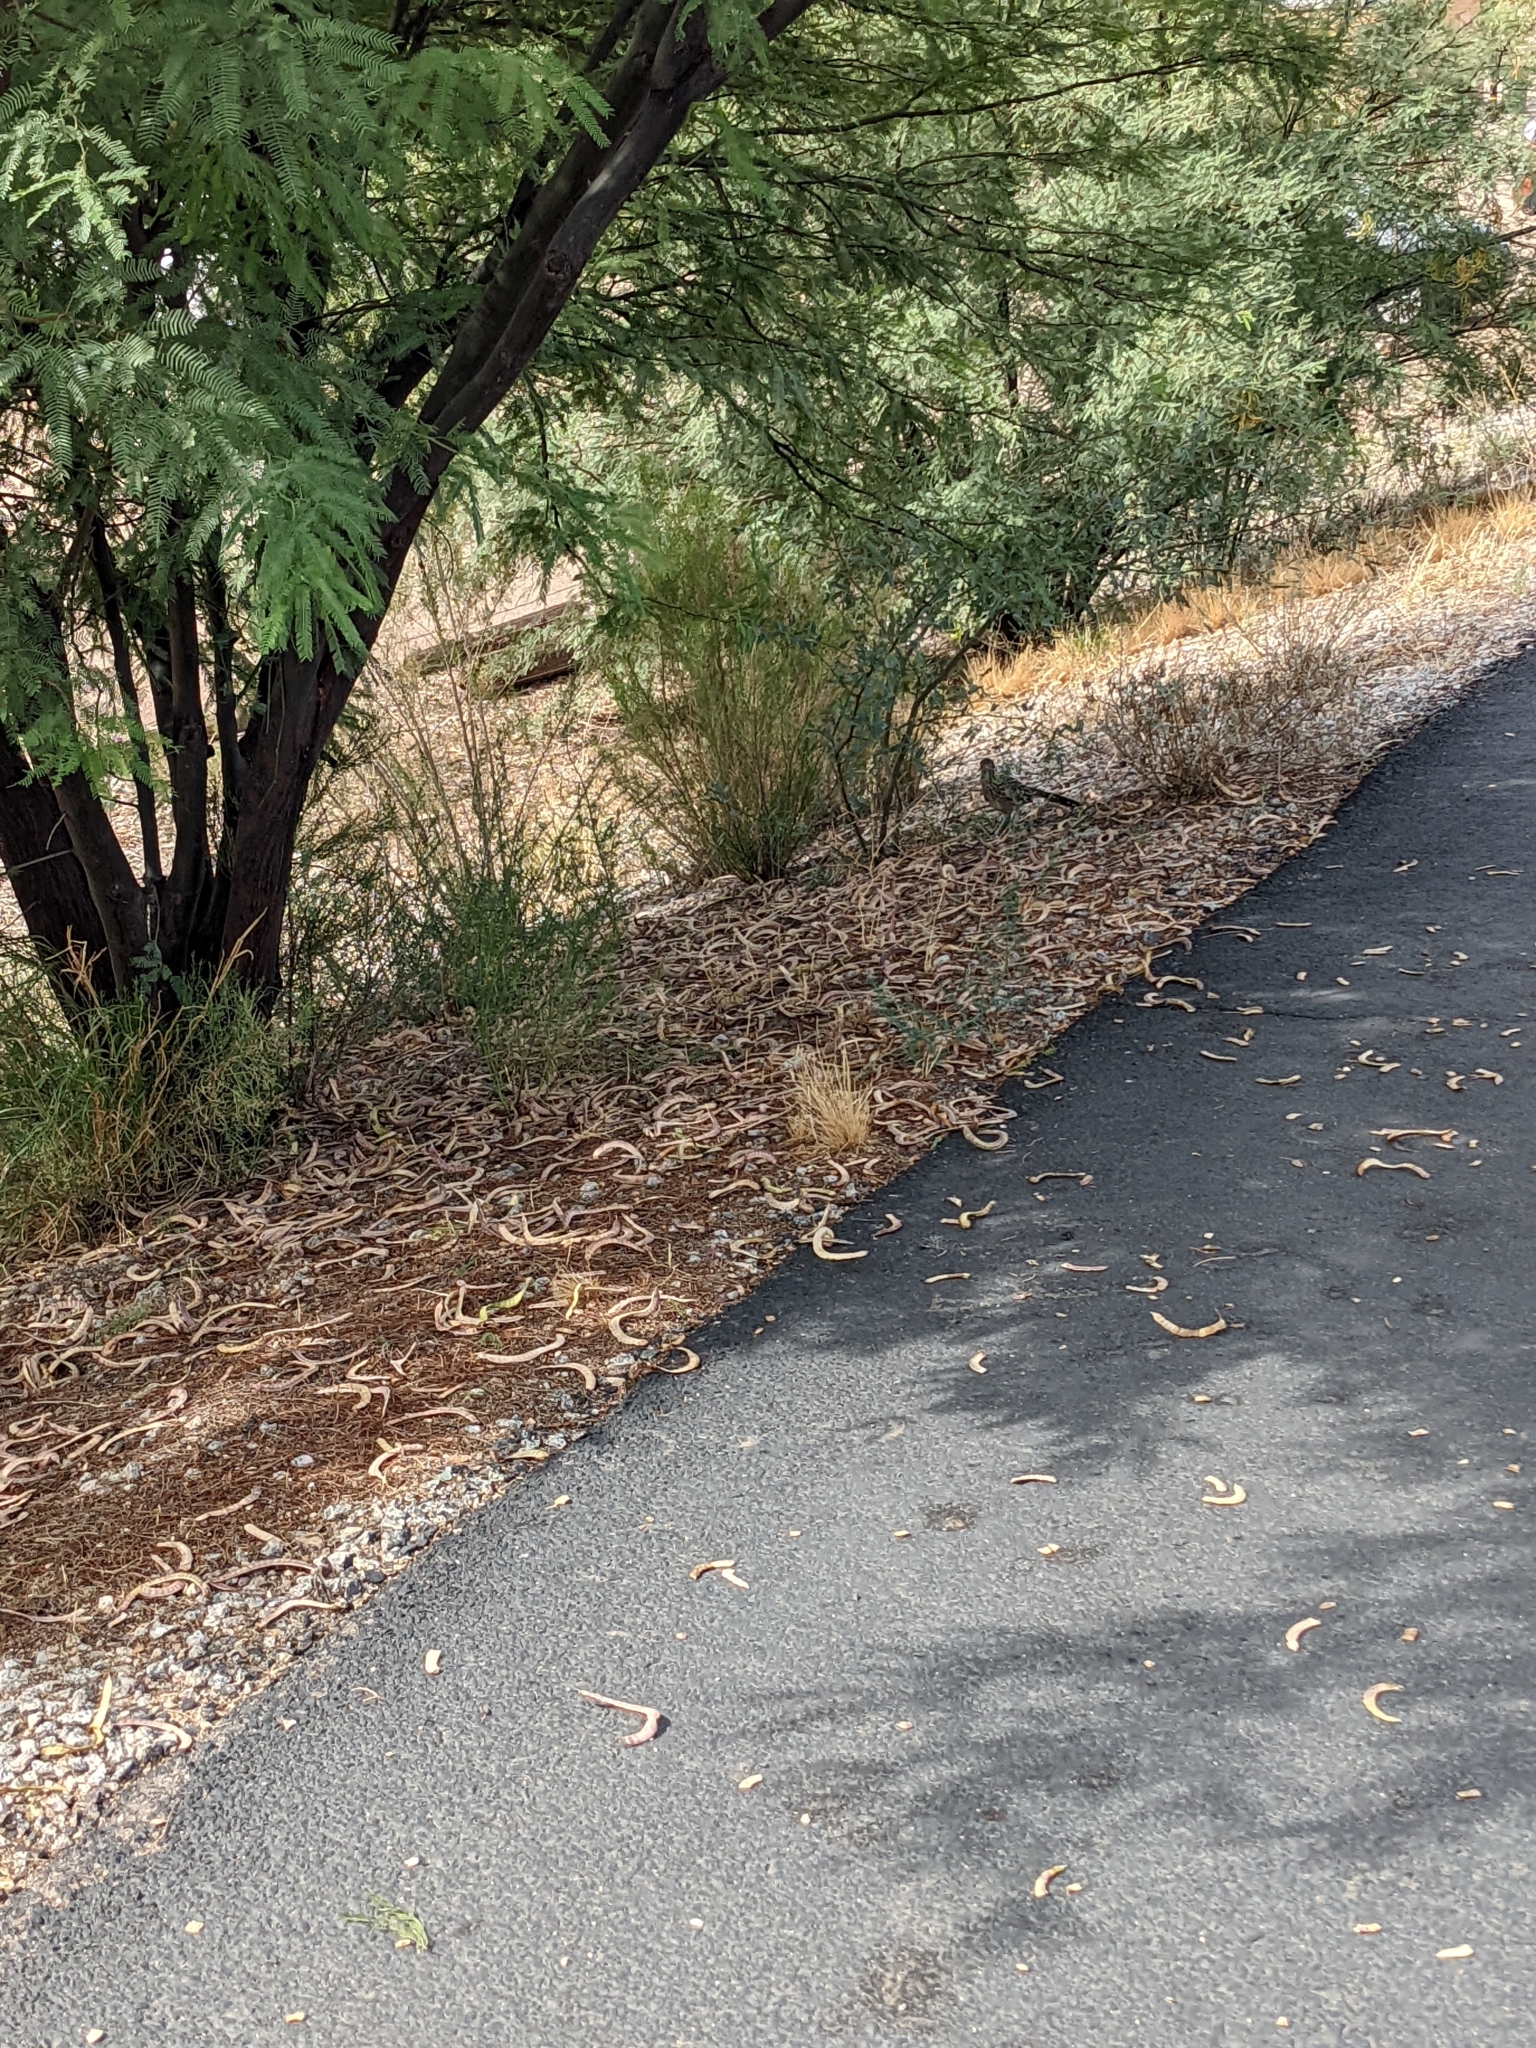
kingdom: Animalia
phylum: Chordata
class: Aves
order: Cuculiformes
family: Cuculidae
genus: Geococcyx
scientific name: Geococcyx californianus
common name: Greater roadrunner
